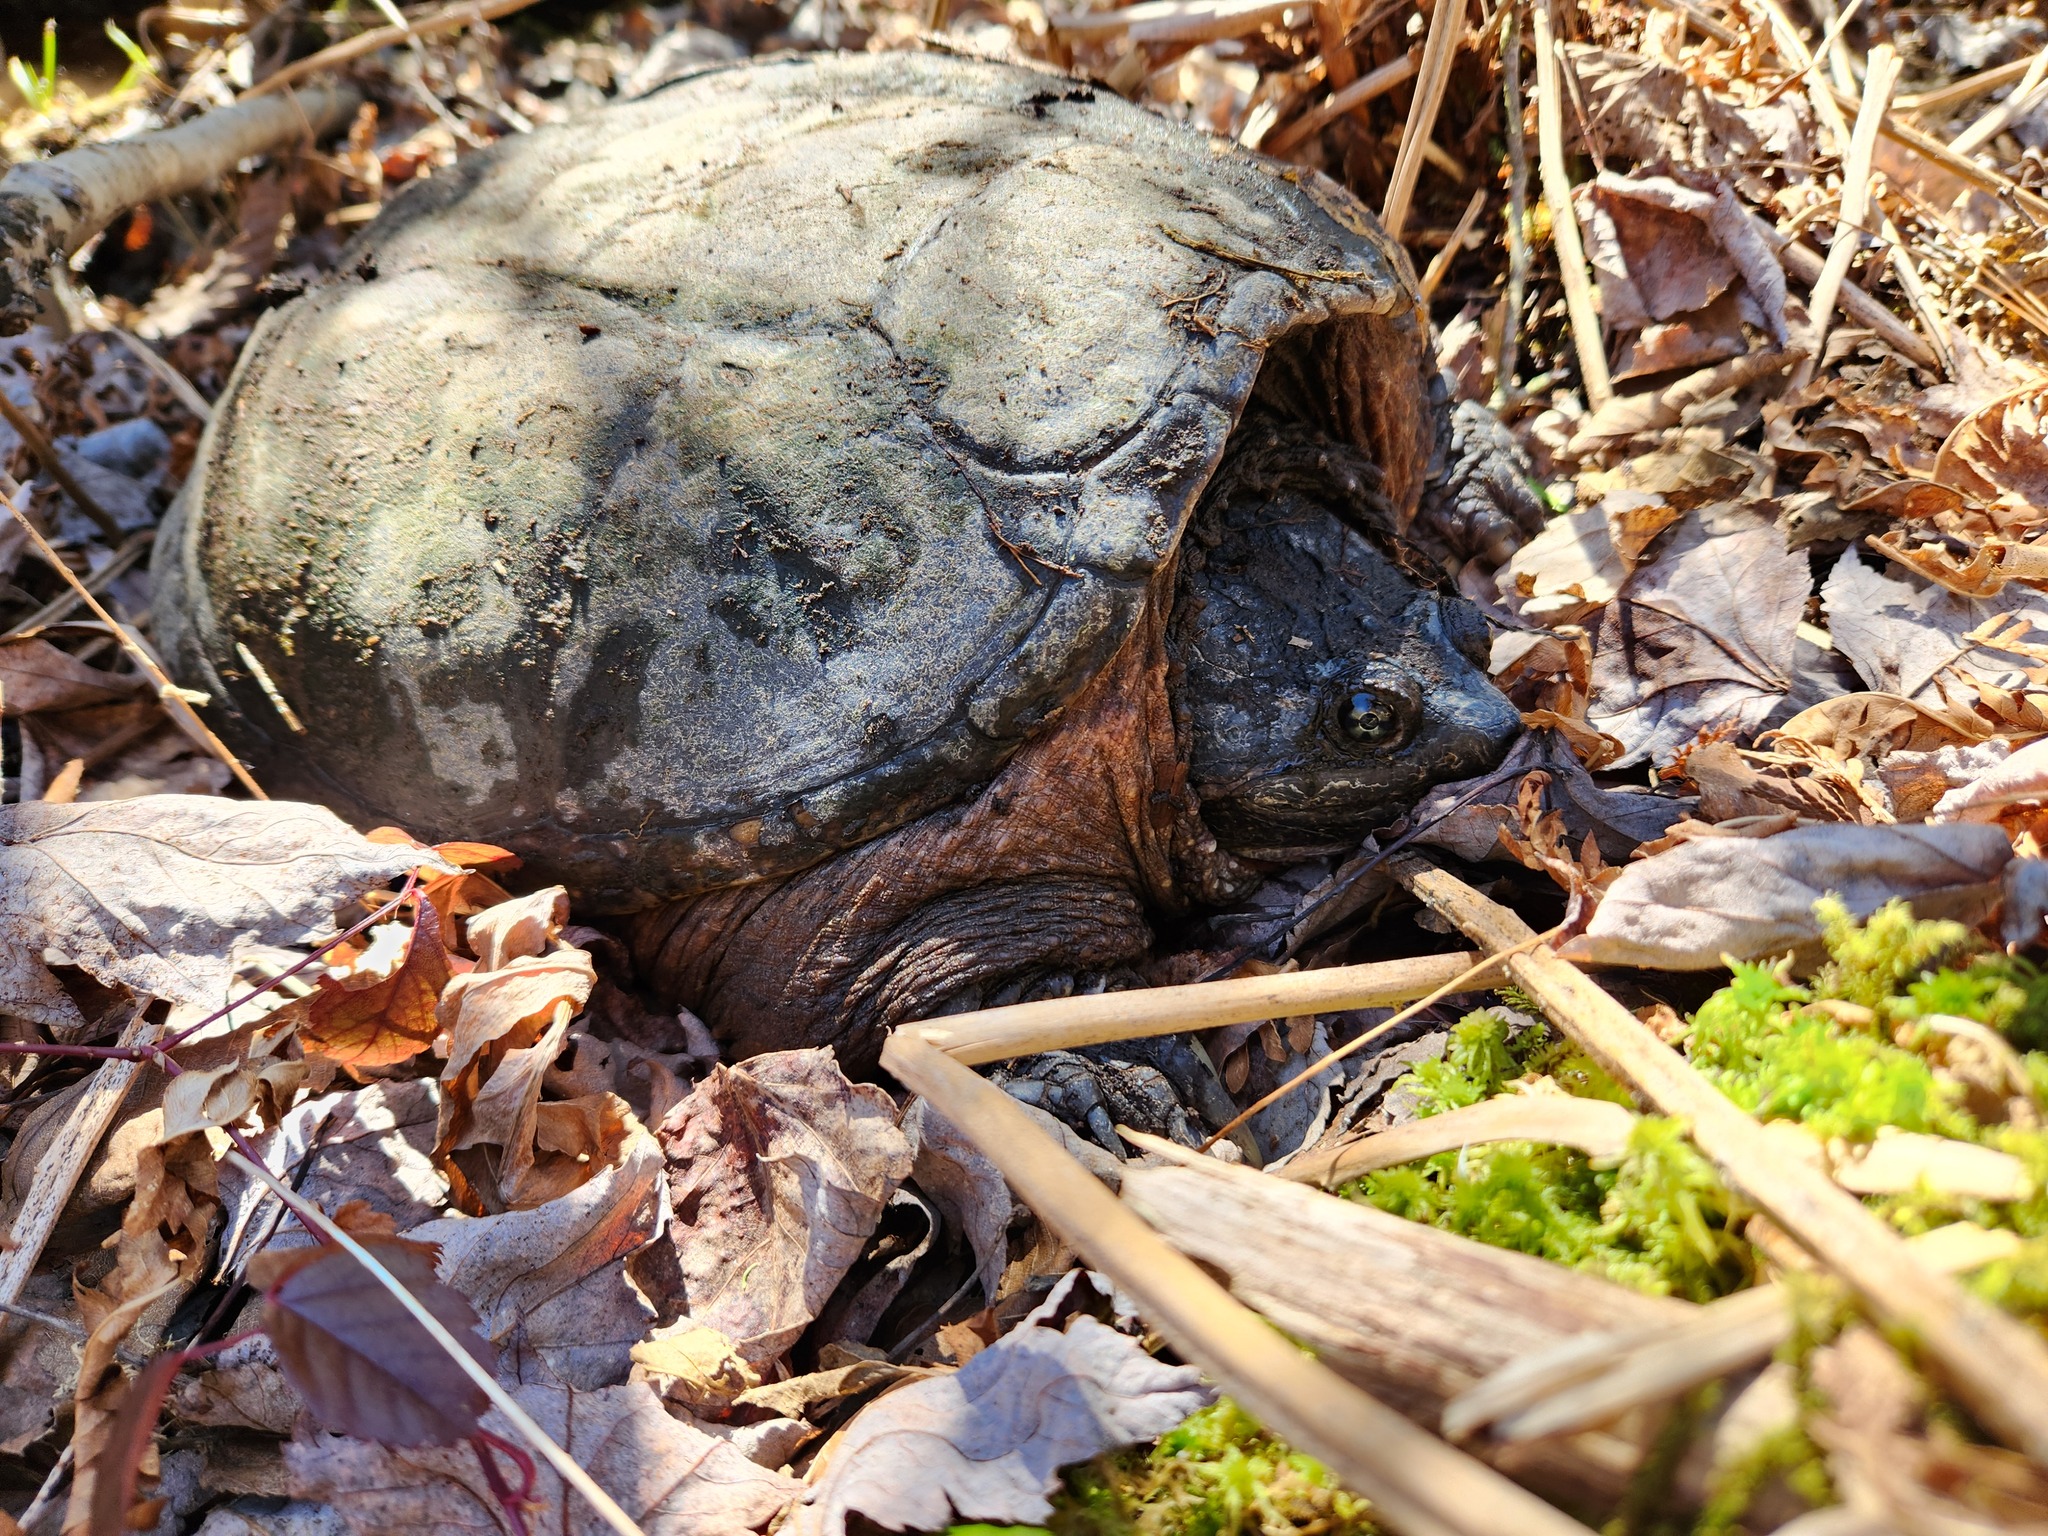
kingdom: Animalia
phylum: Chordata
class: Testudines
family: Chelydridae
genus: Chelydra
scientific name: Chelydra serpentina
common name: Common snapping turtle
